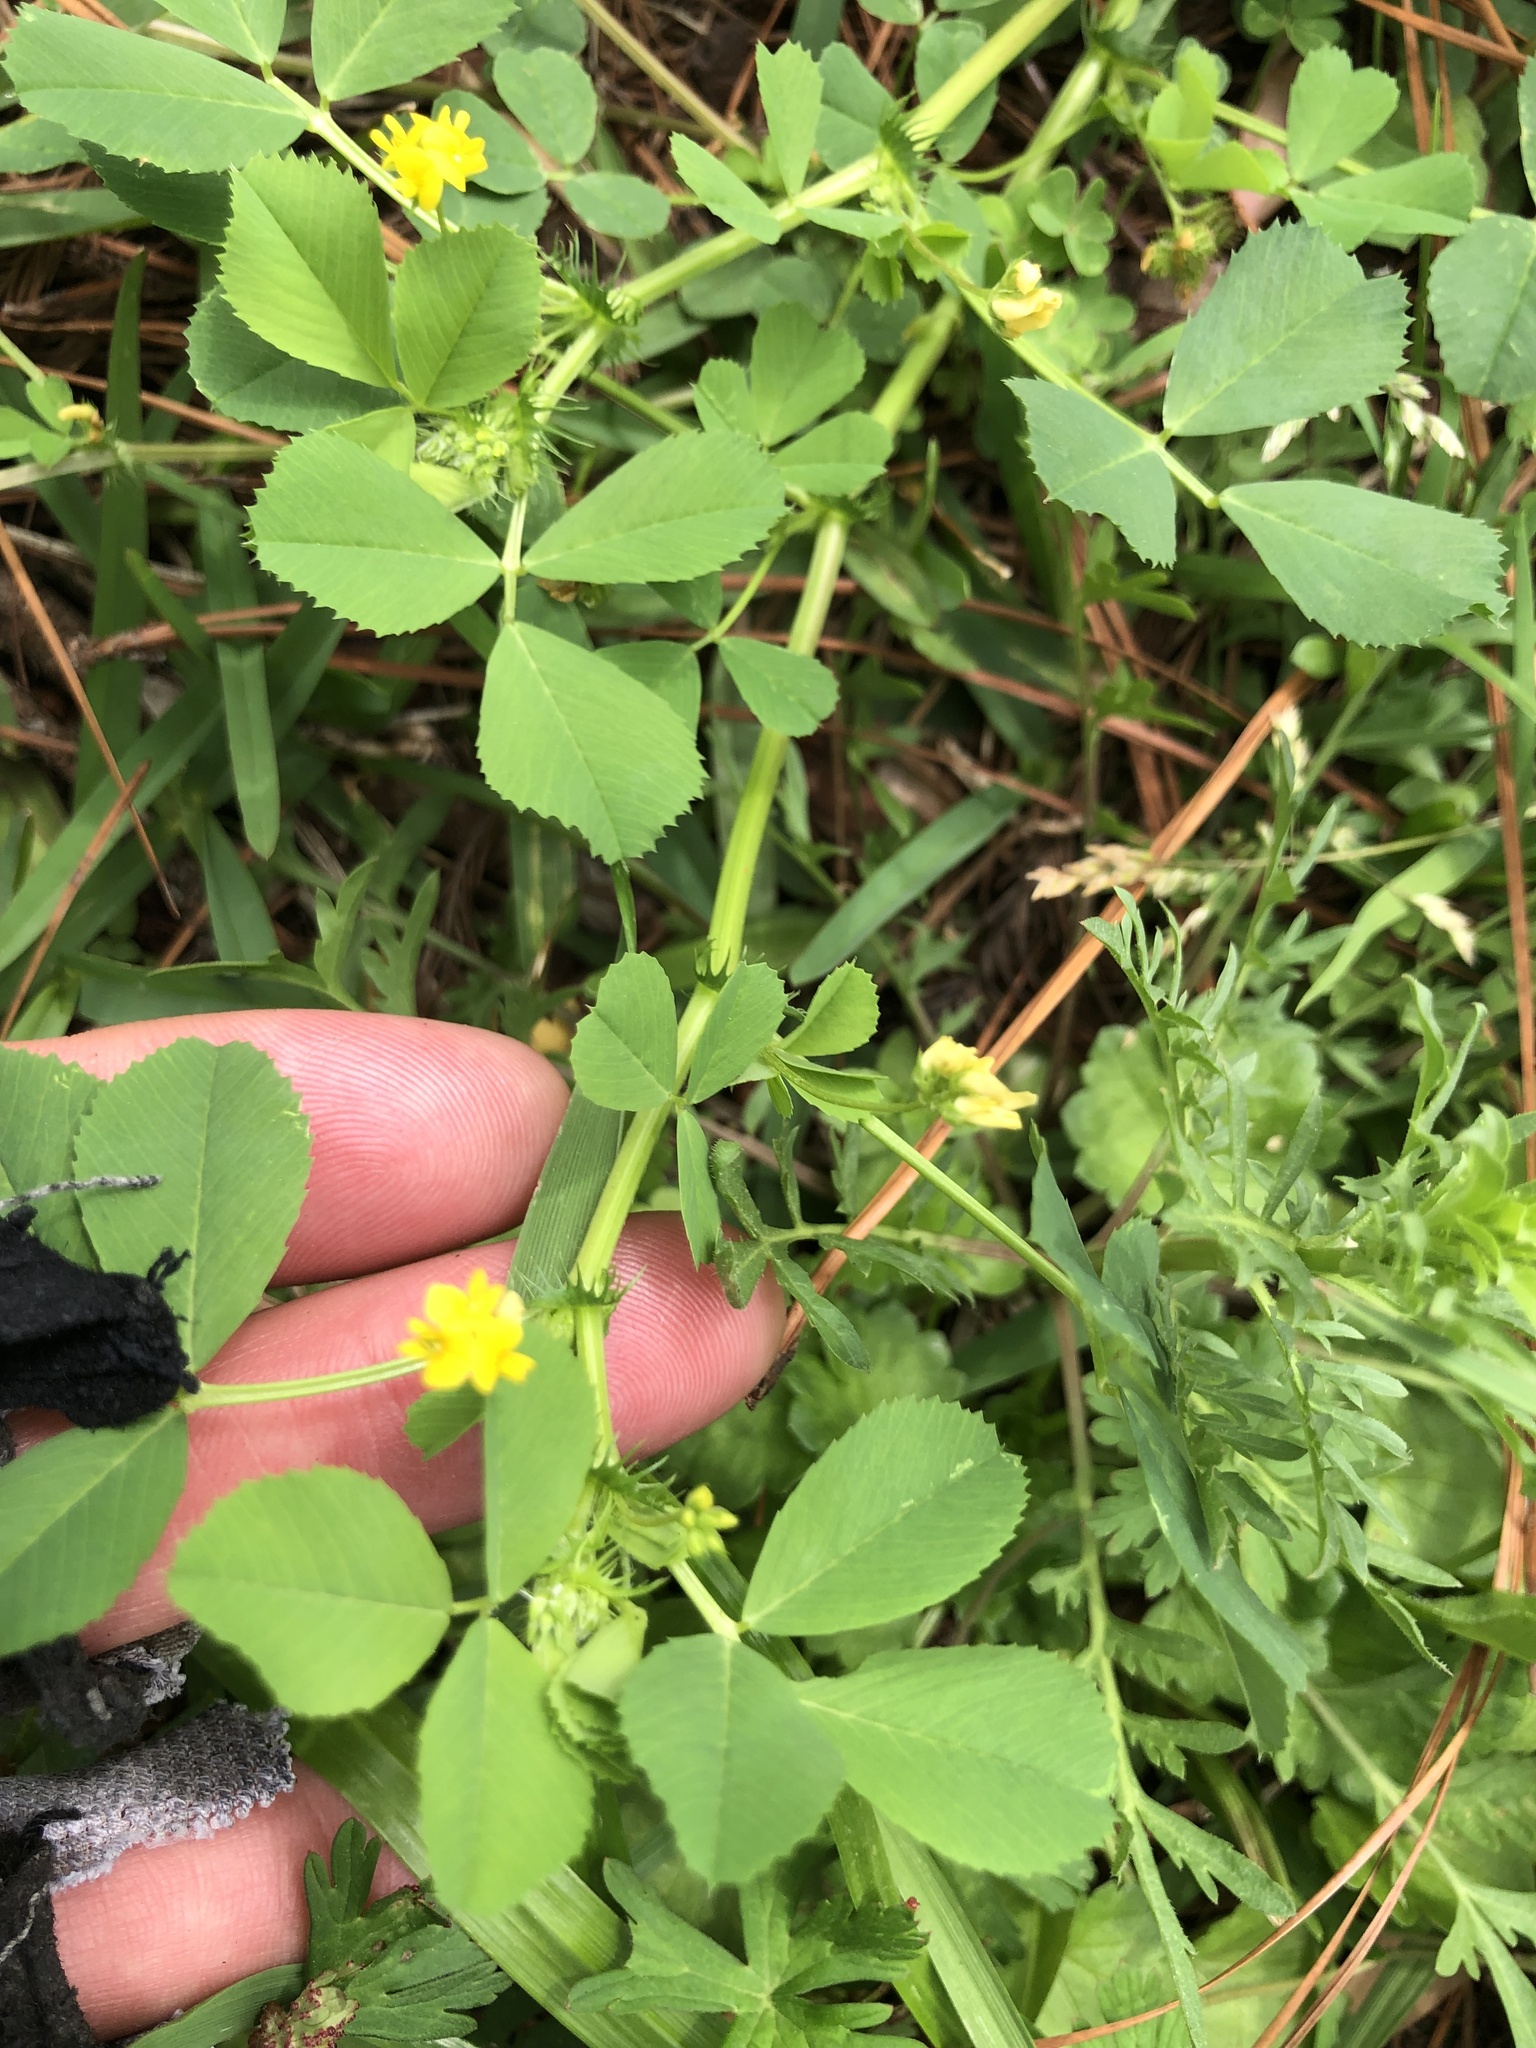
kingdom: Plantae
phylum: Tracheophyta
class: Magnoliopsida
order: Fabales
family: Fabaceae
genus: Medicago
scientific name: Medicago polymorpha
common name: Burclover
